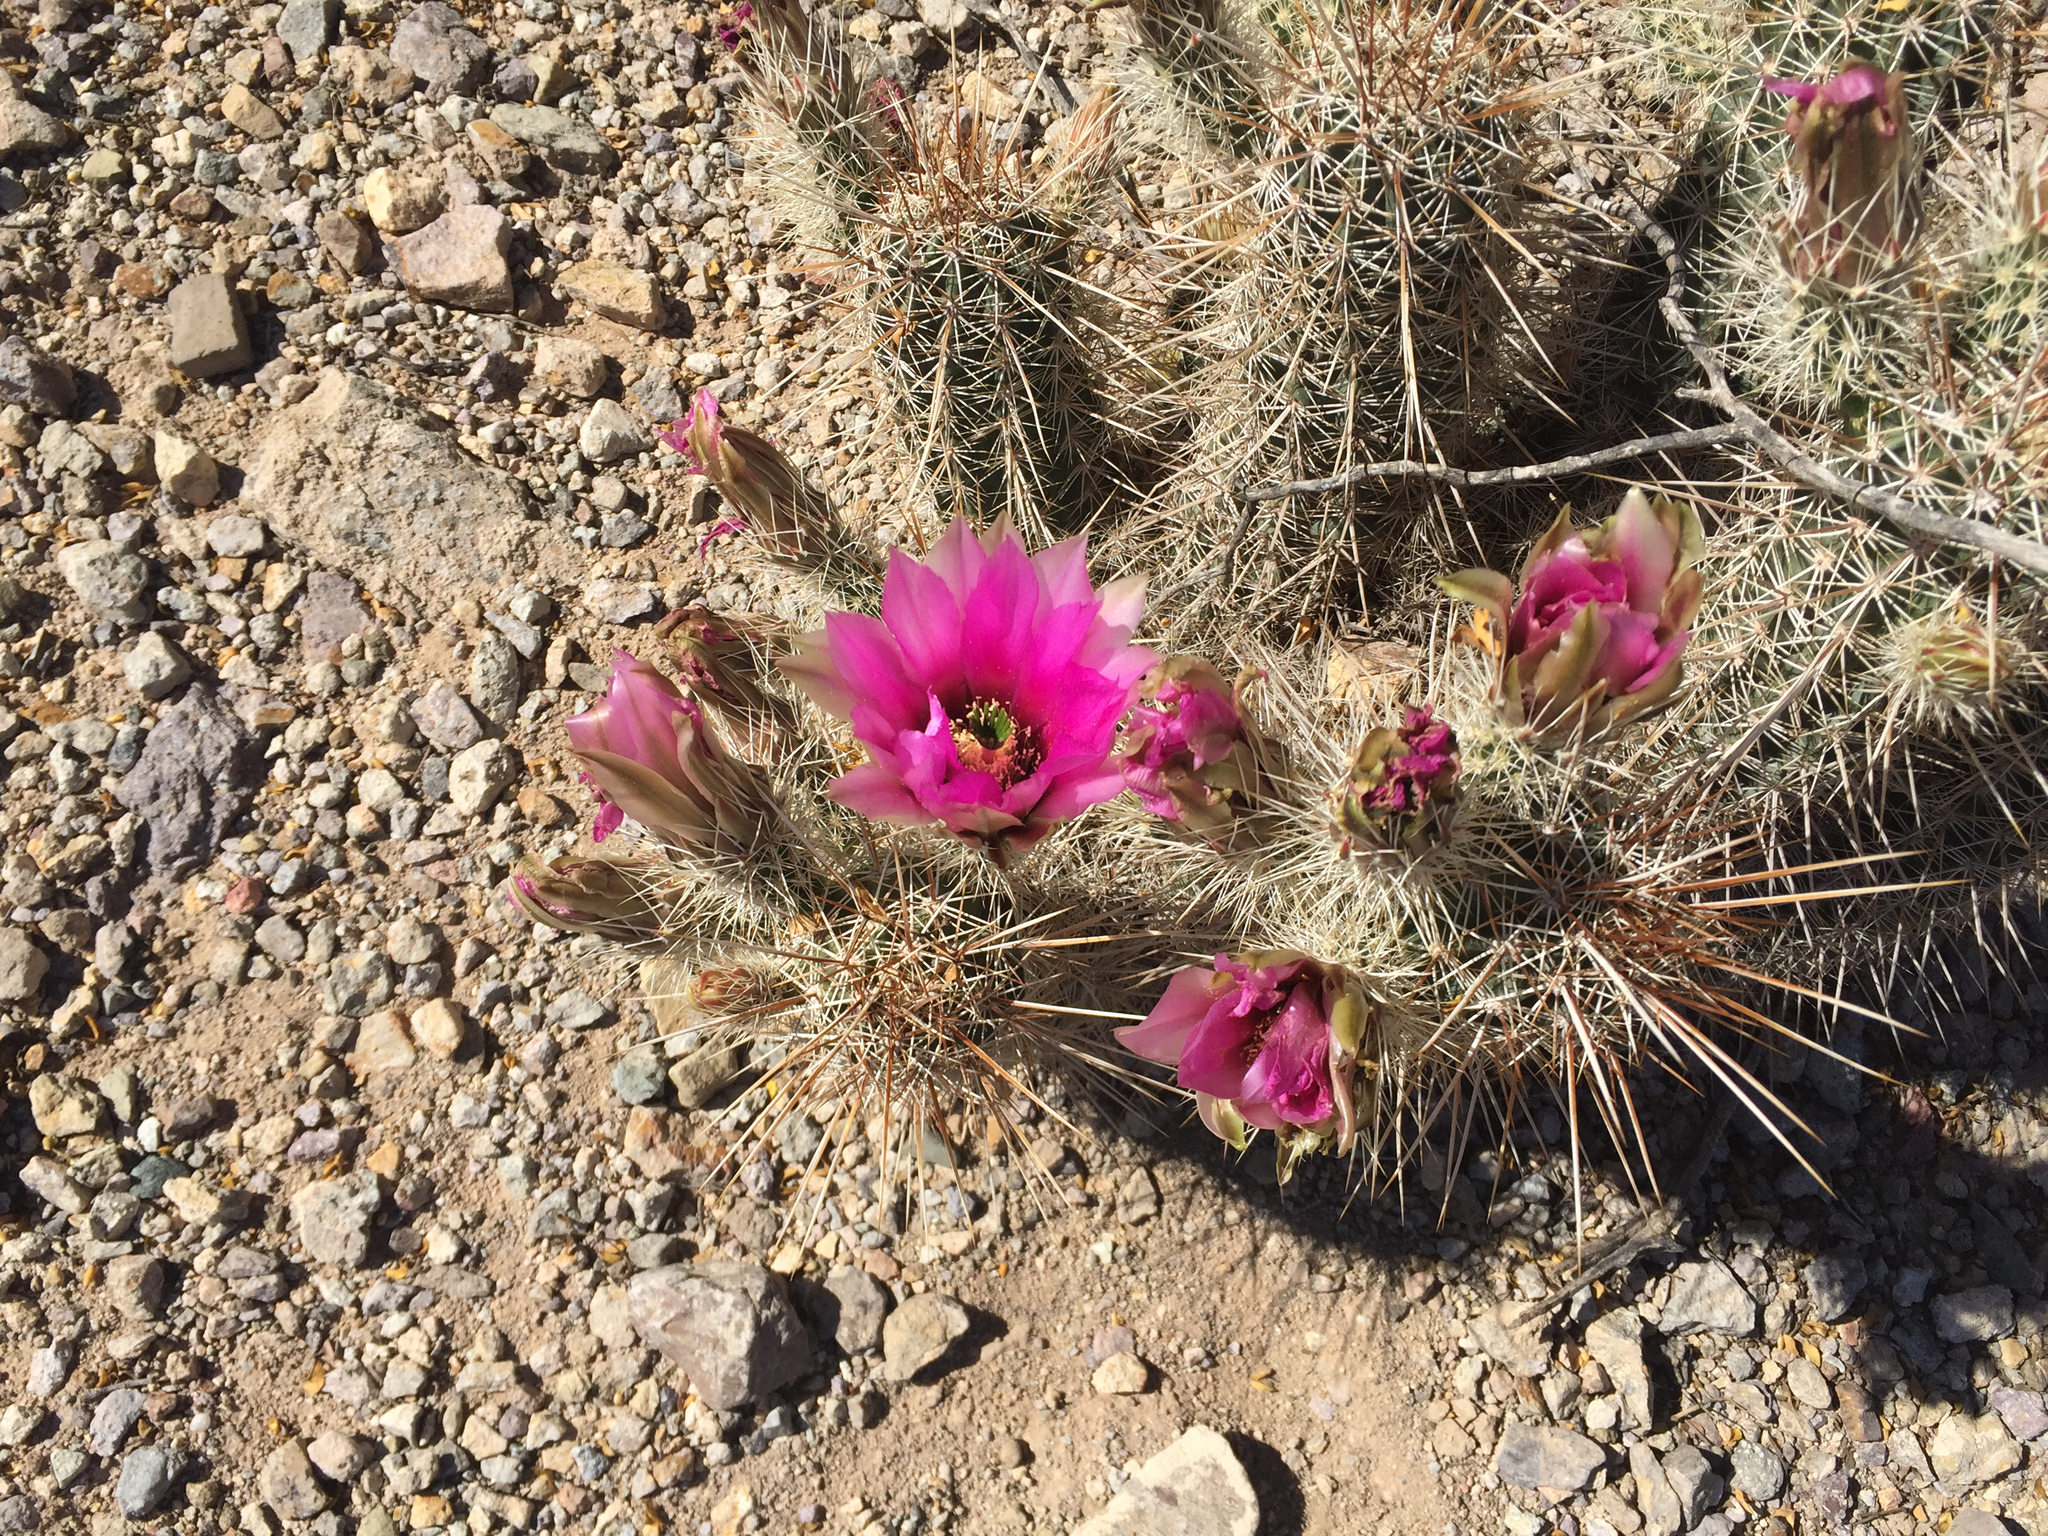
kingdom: Plantae
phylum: Tracheophyta
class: Magnoliopsida
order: Caryophyllales
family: Cactaceae
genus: Echinocereus
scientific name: Echinocereus fasciculatus
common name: Bundle hedgehog
